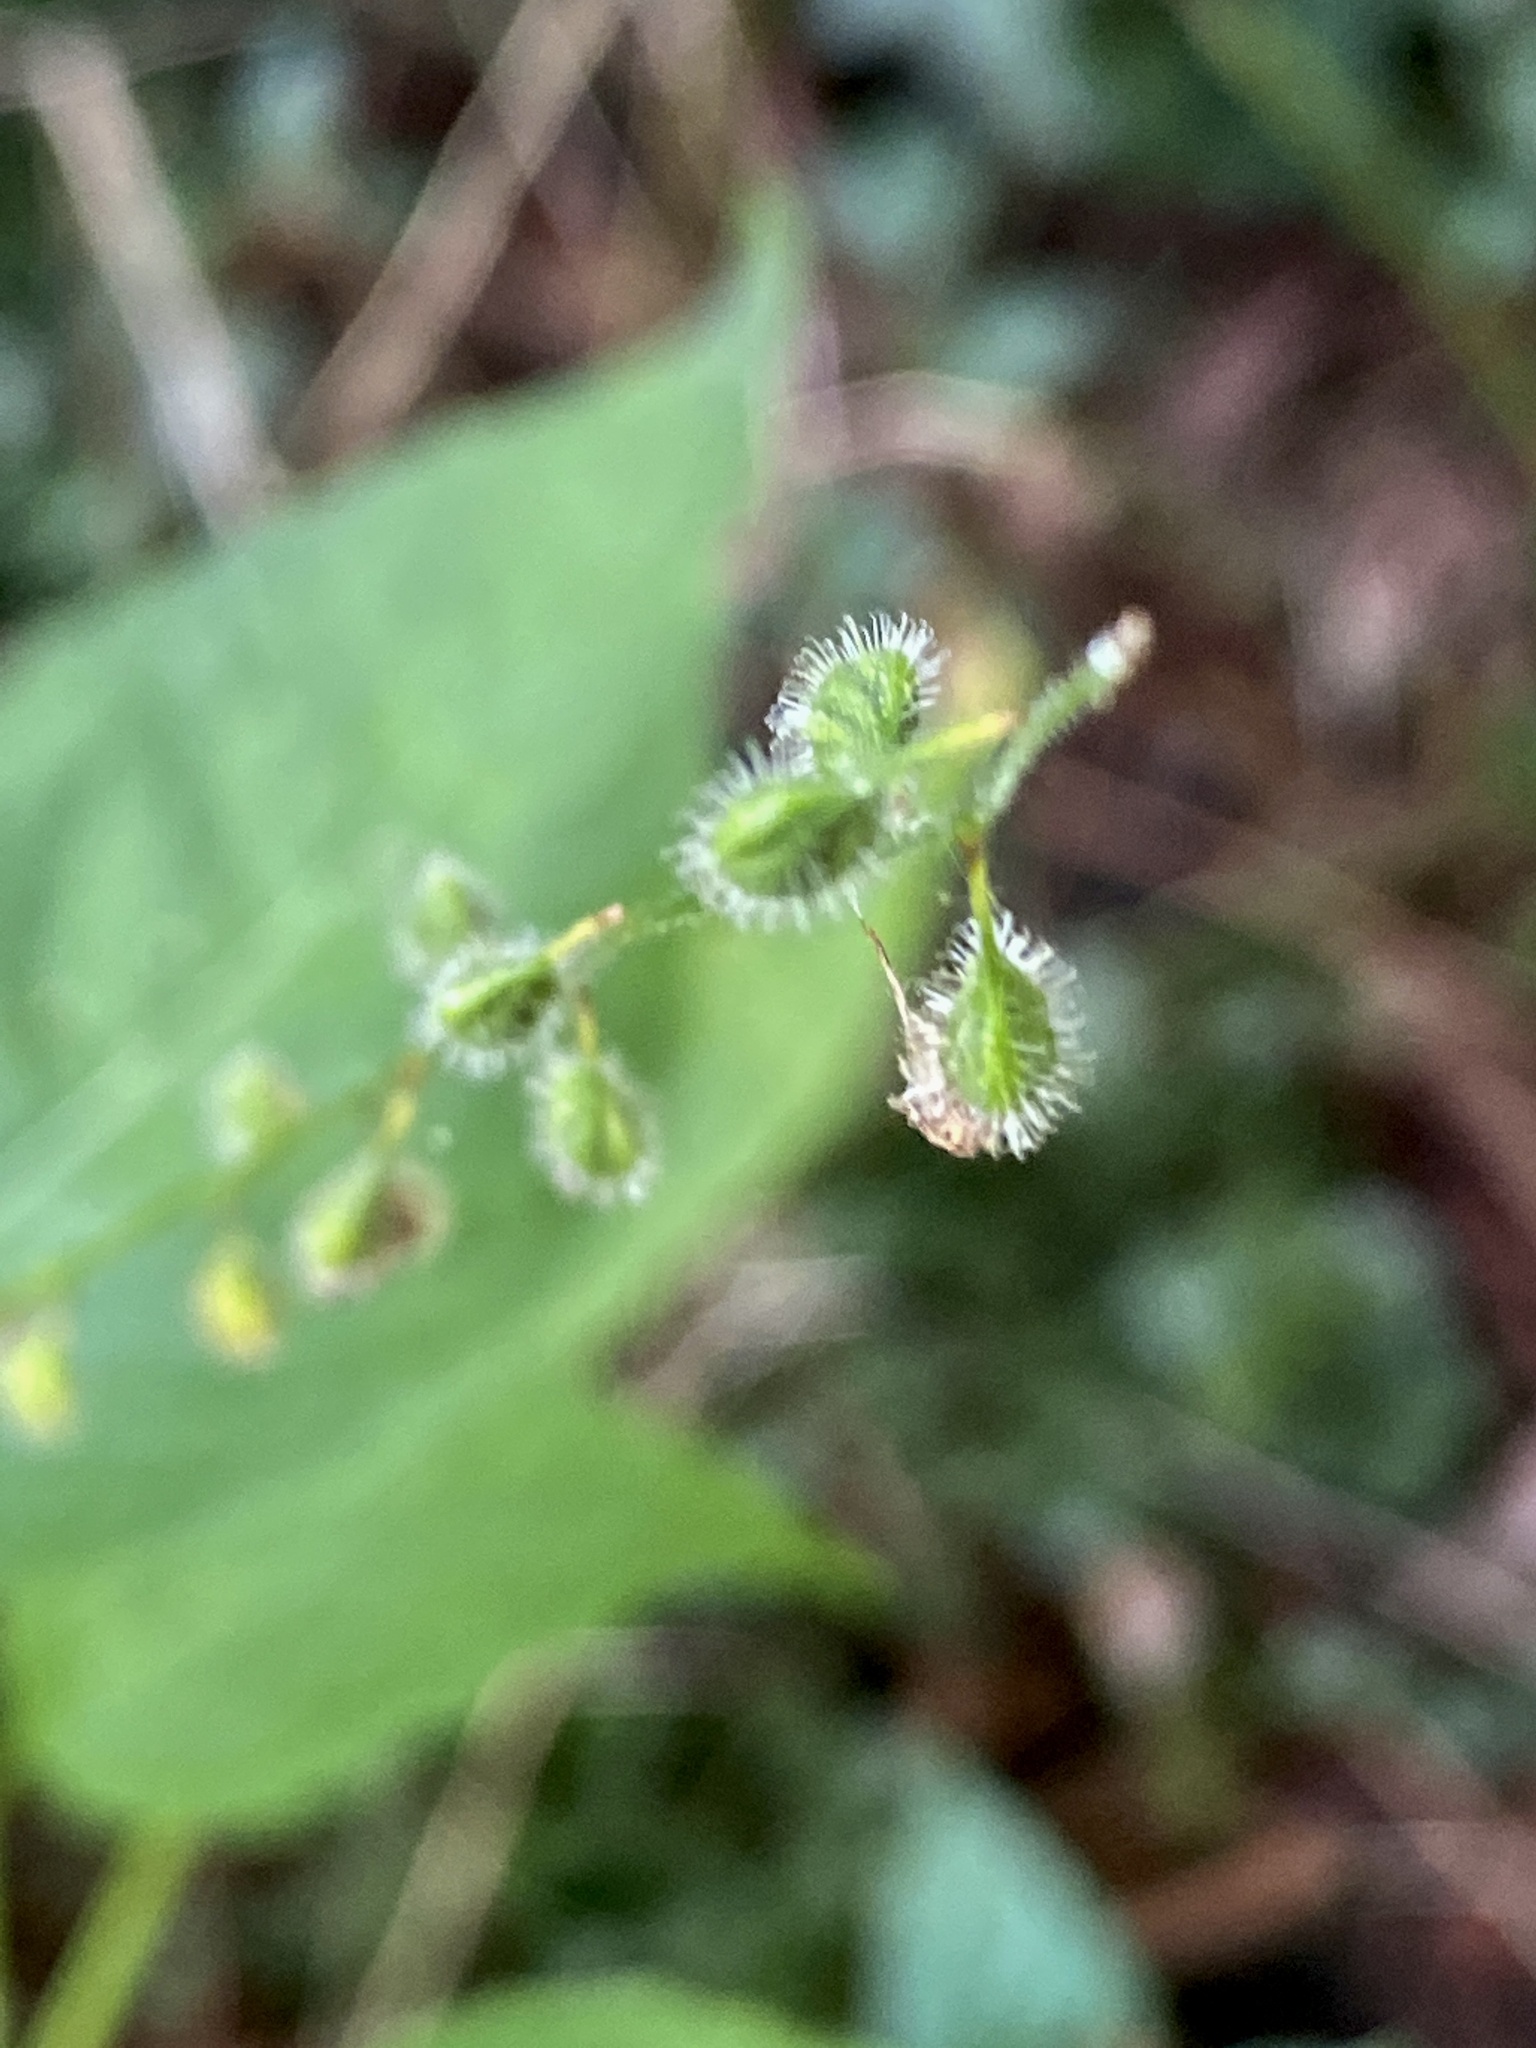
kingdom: Plantae
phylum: Tracheophyta
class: Magnoliopsida
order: Myrtales
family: Onagraceae
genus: Circaea
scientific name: Circaea canadensis
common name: Broad-leaved enchanter's nightshade
